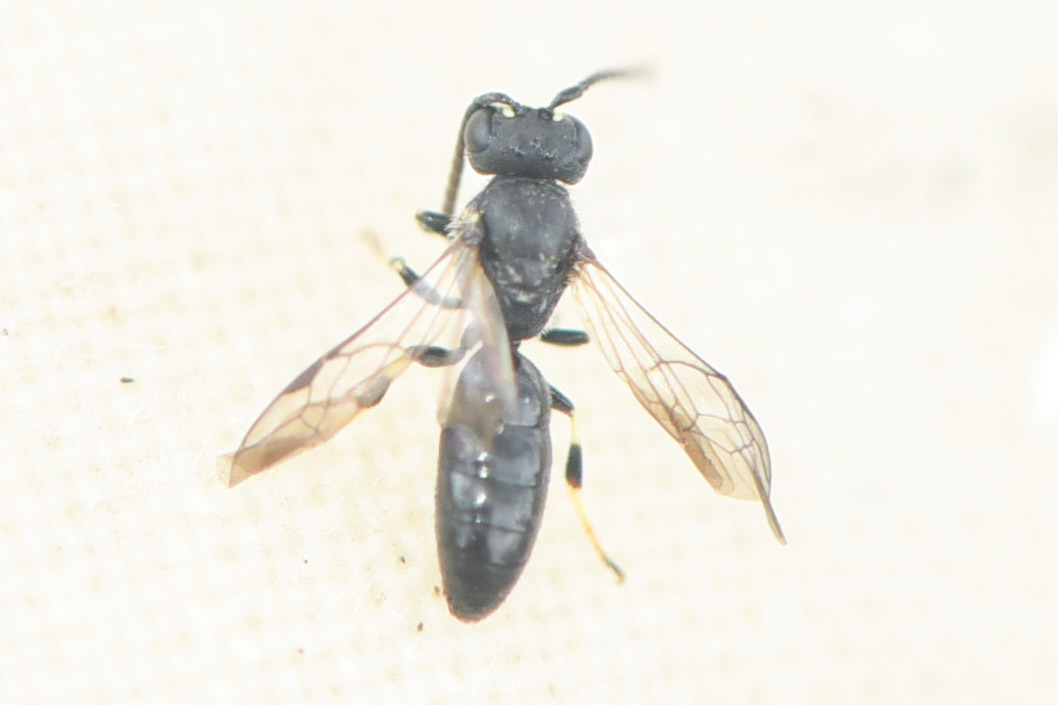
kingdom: Animalia
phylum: Arthropoda
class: Insecta
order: Hymenoptera
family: Colletidae
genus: Hylaeus
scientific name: Hylaeus mesillae
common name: Mesilla masked bee
